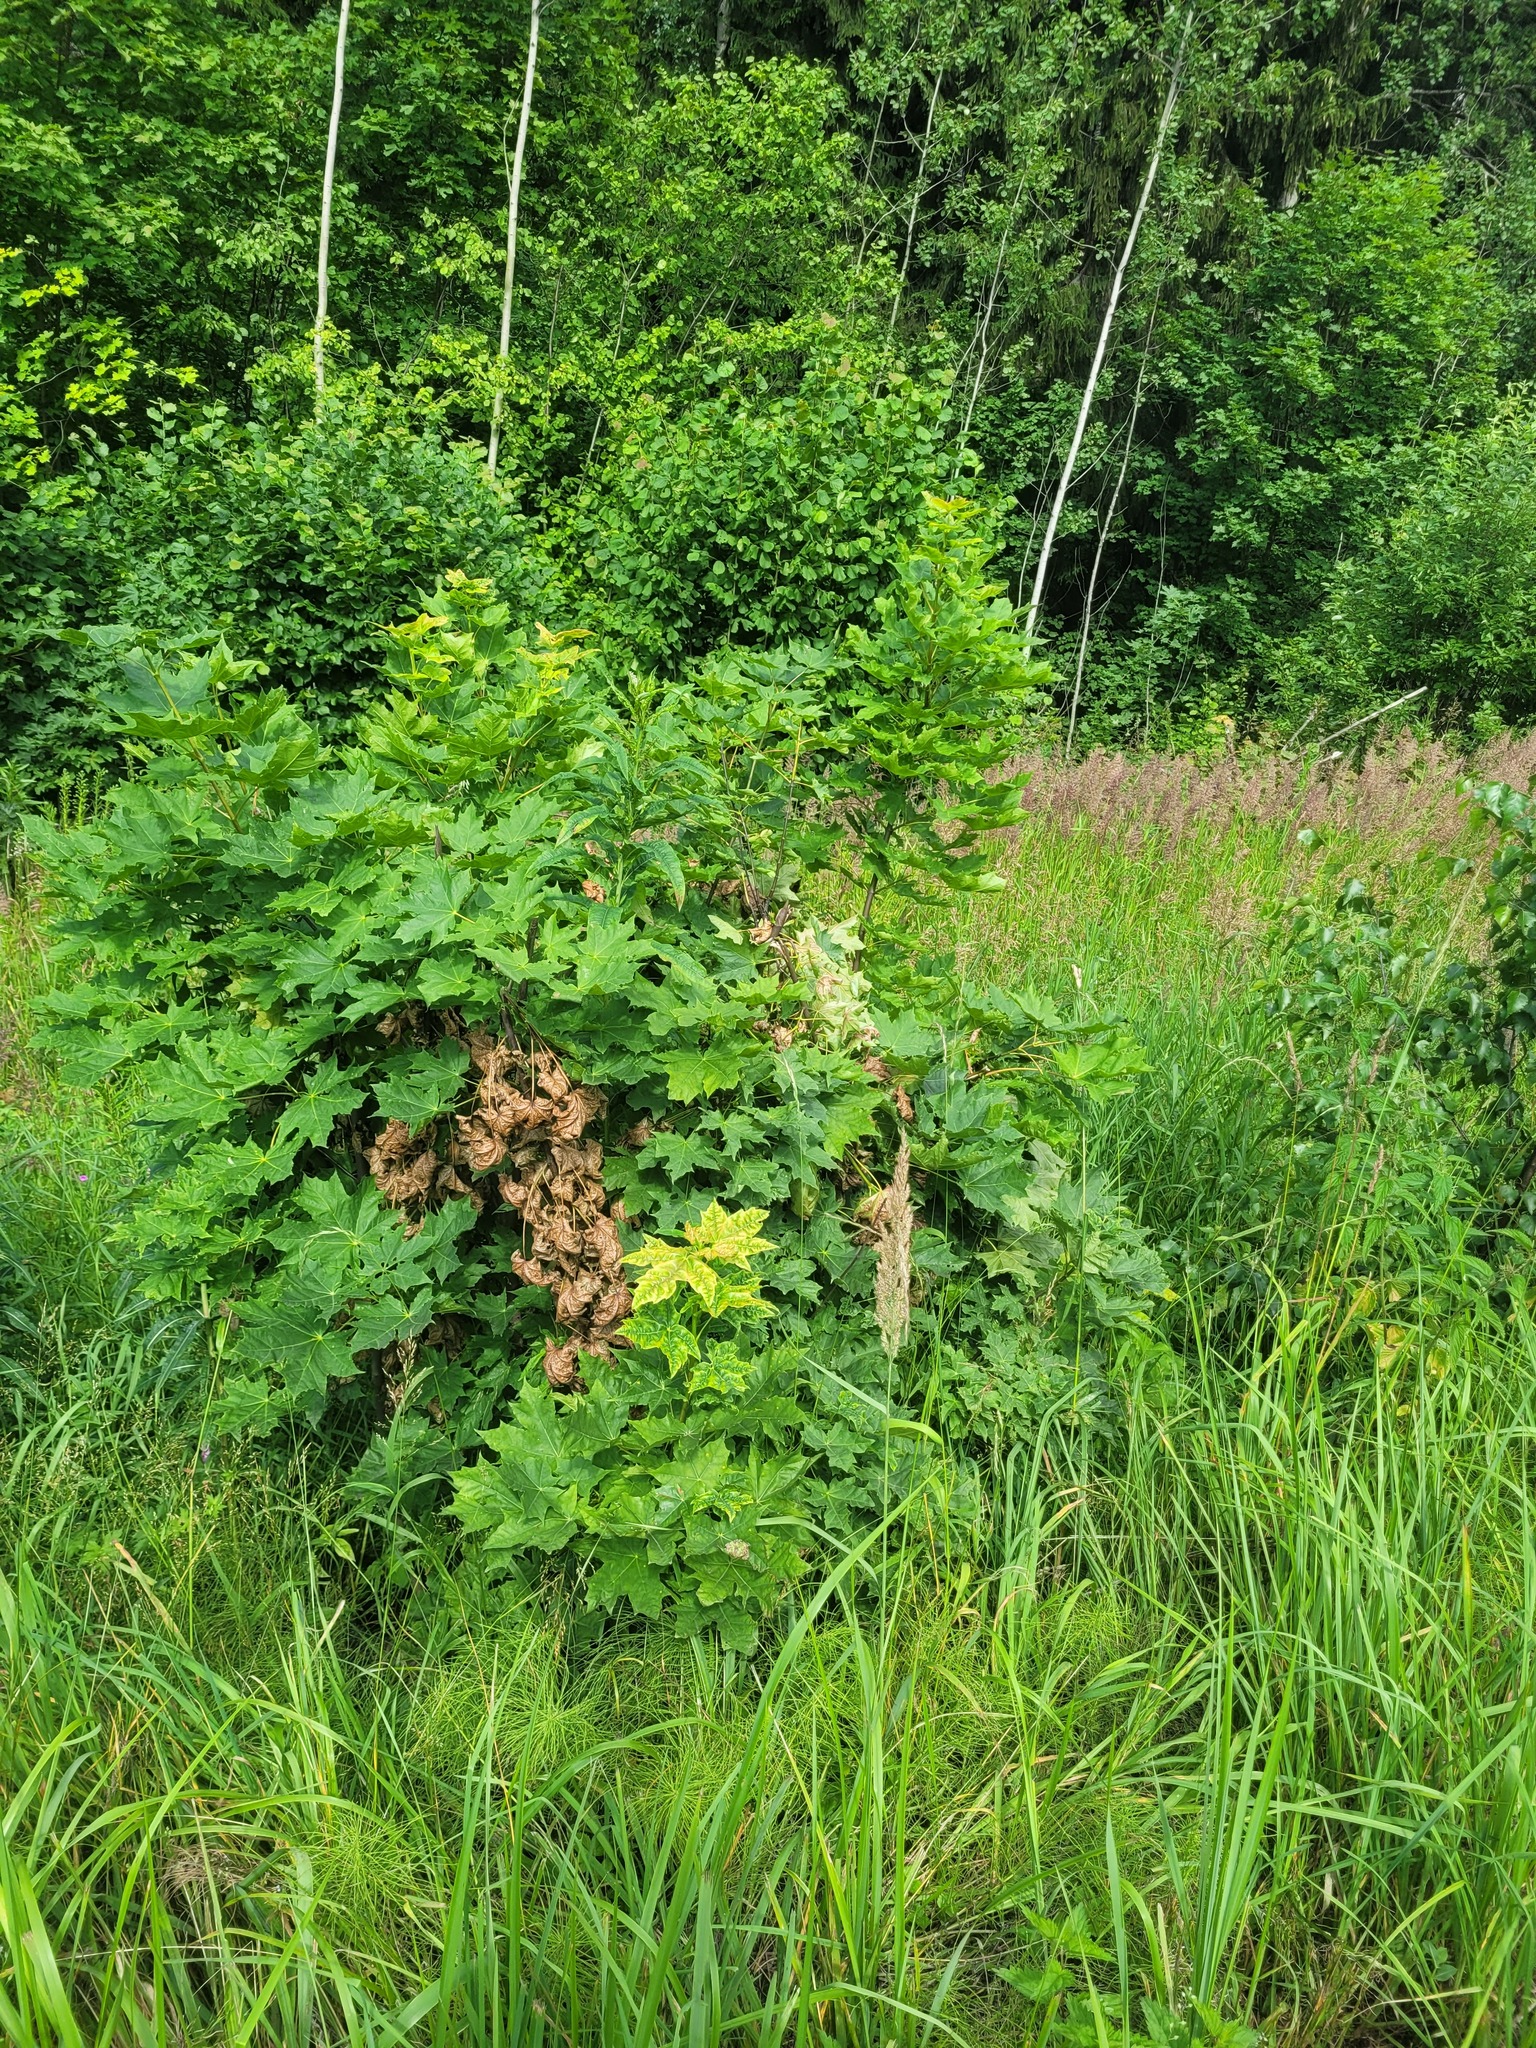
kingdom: Plantae
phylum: Tracheophyta
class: Magnoliopsida
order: Sapindales
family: Sapindaceae
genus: Acer
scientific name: Acer platanoides
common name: Norway maple
